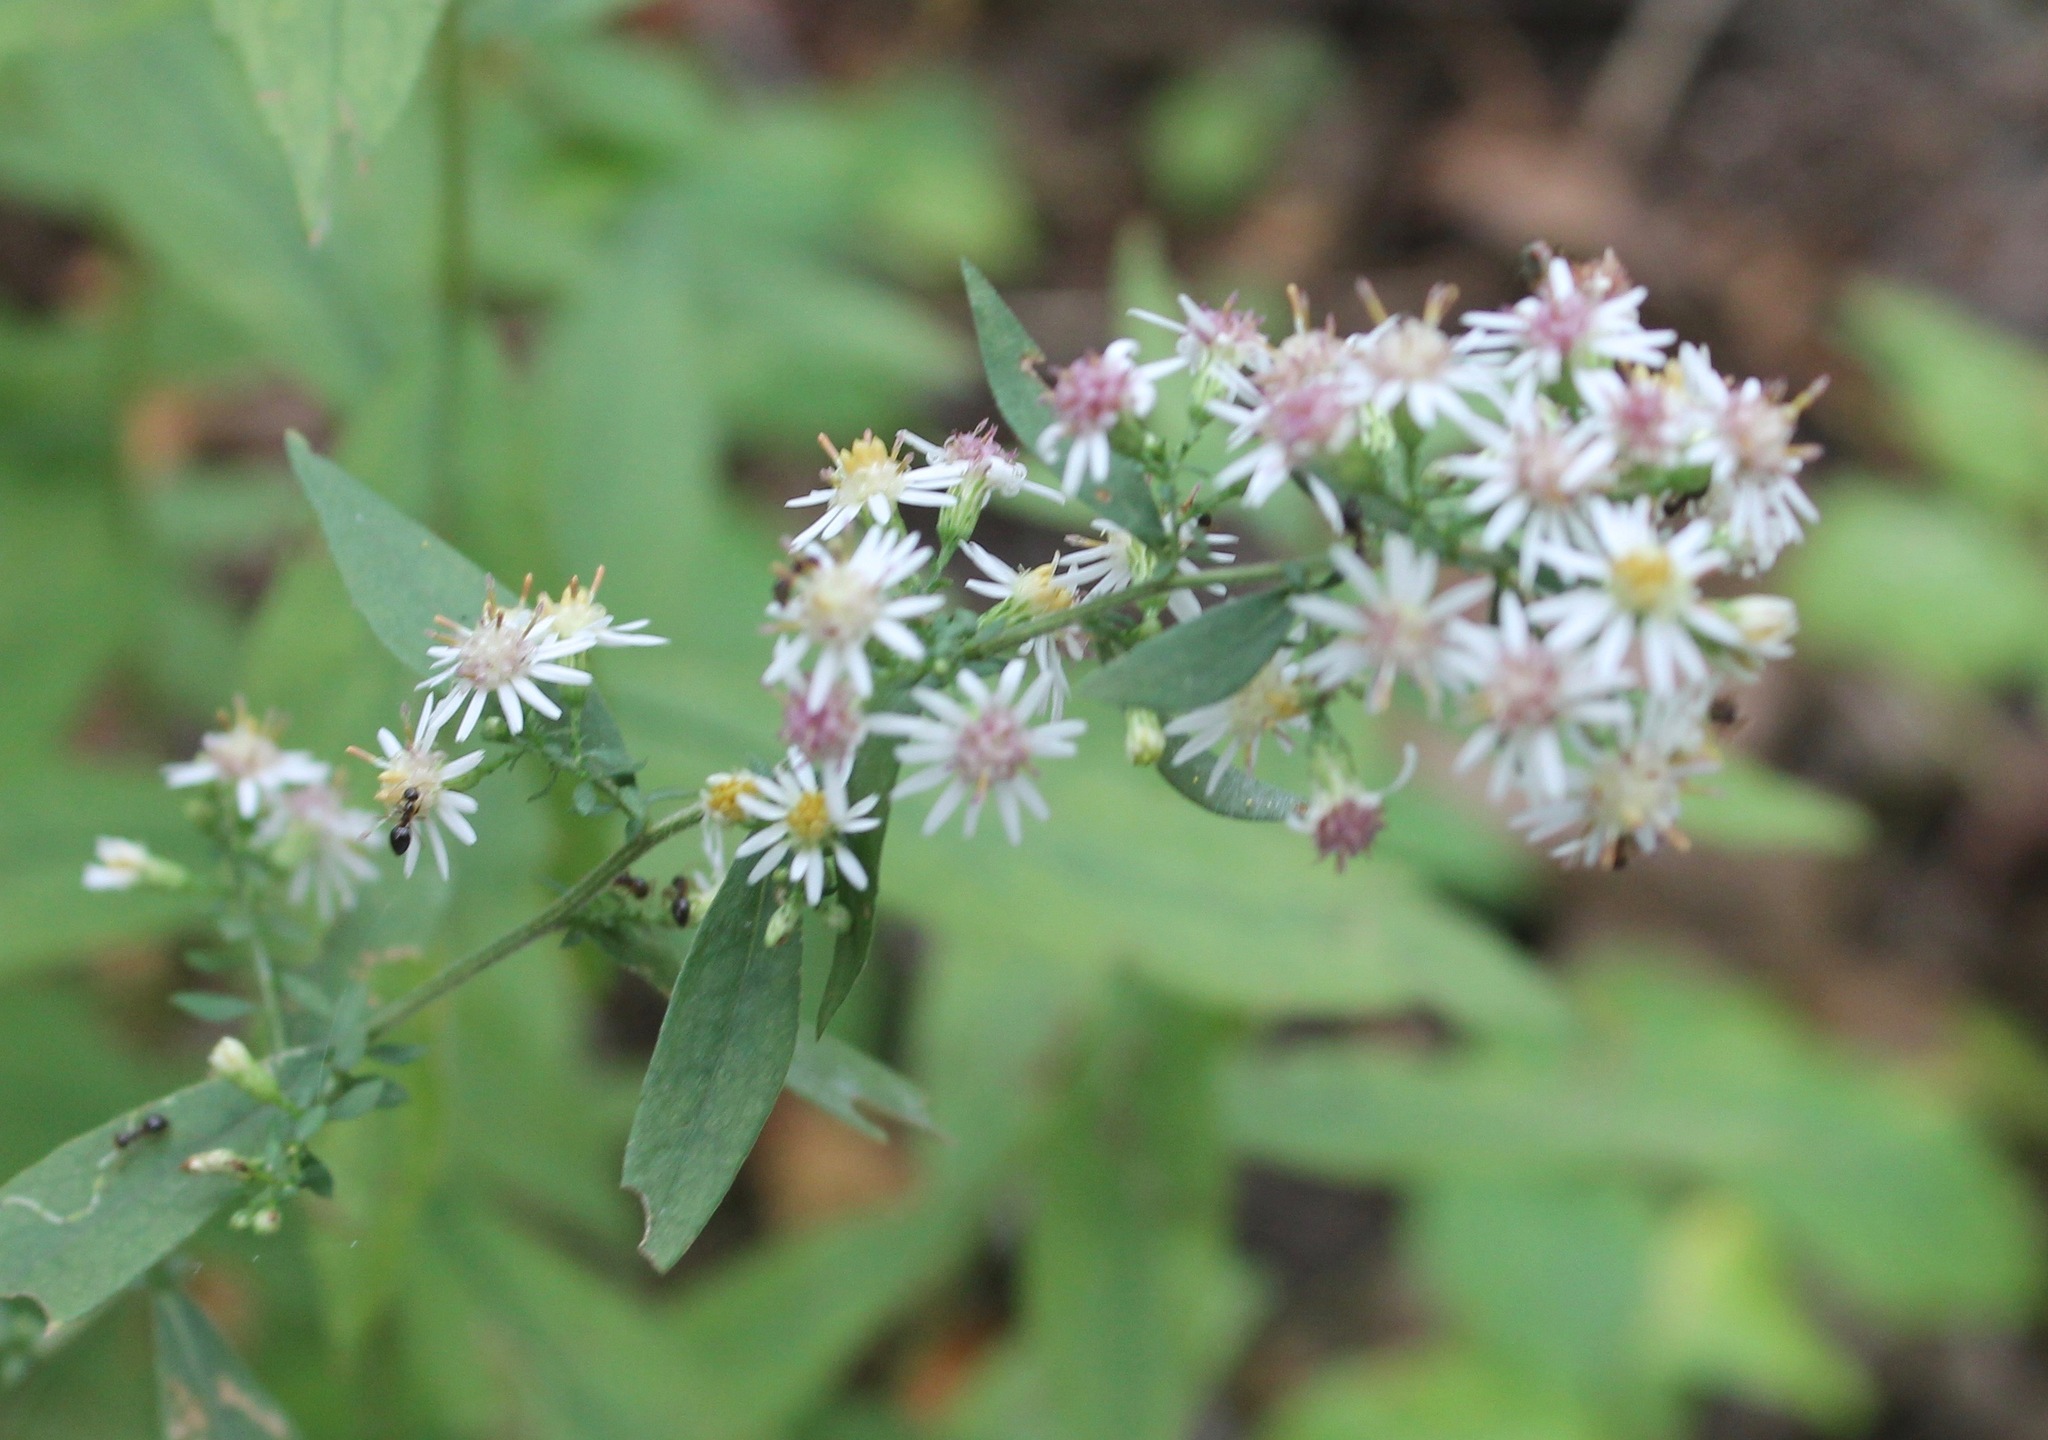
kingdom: Plantae
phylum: Tracheophyta
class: Magnoliopsida
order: Asterales
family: Asteraceae
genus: Symphyotrichum
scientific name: Symphyotrichum lateriflorum
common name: Calico aster
